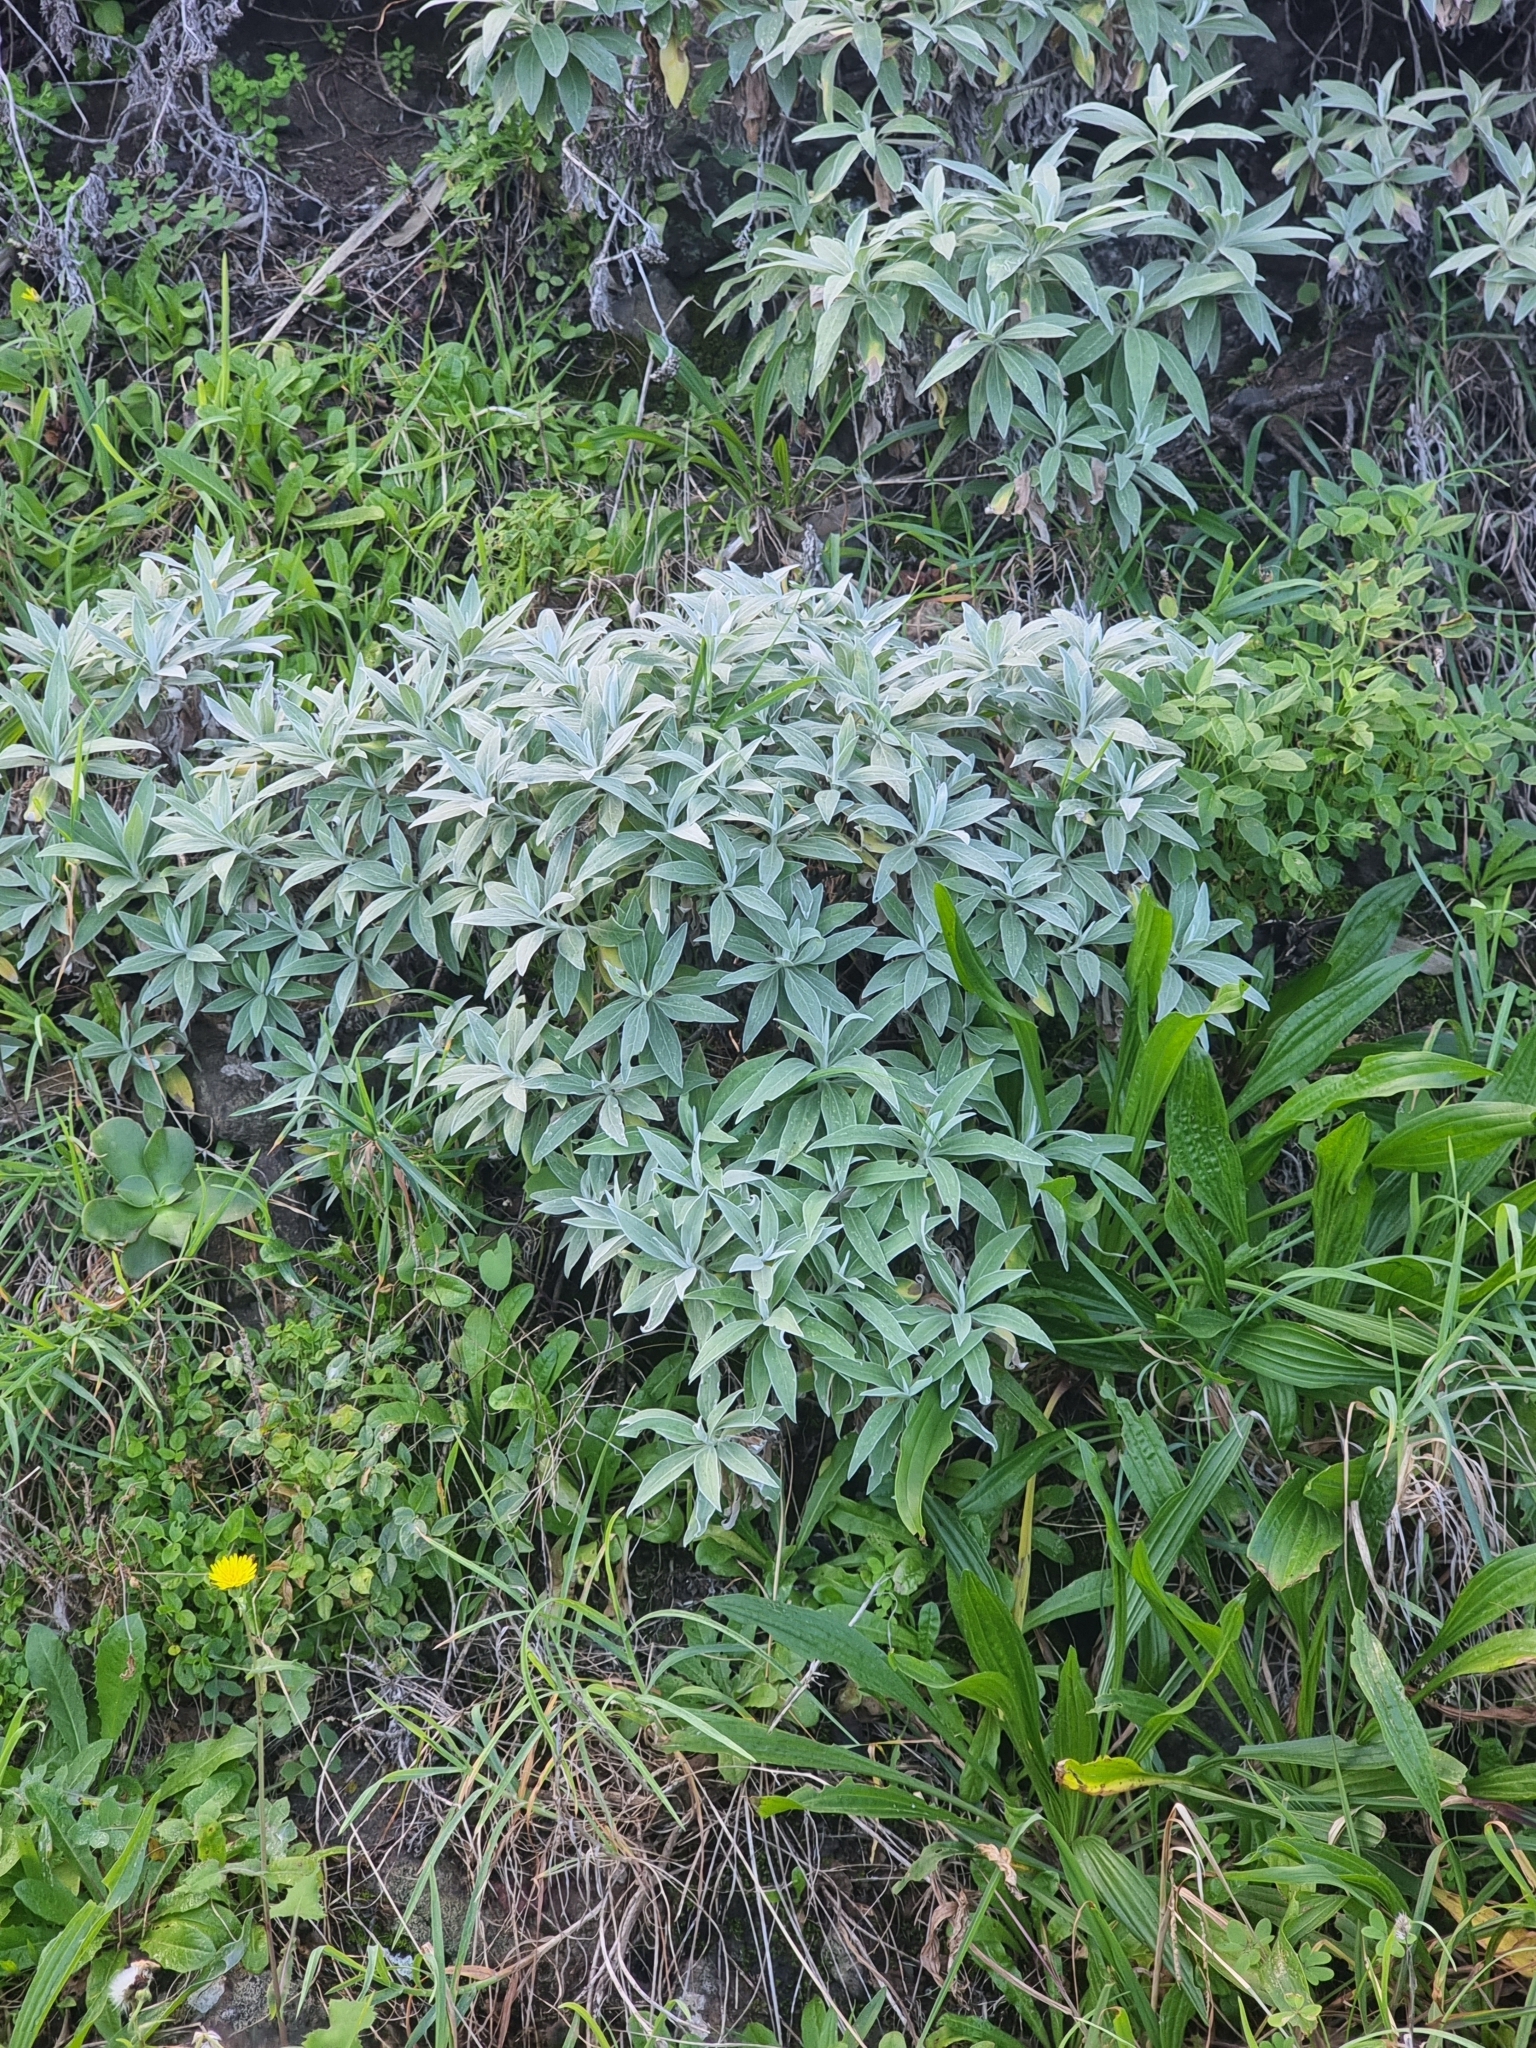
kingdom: Plantae
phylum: Tracheophyta
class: Magnoliopsida
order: Asterales
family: Asteraceae
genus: Helichrysum
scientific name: Helichrysum melaleucum
